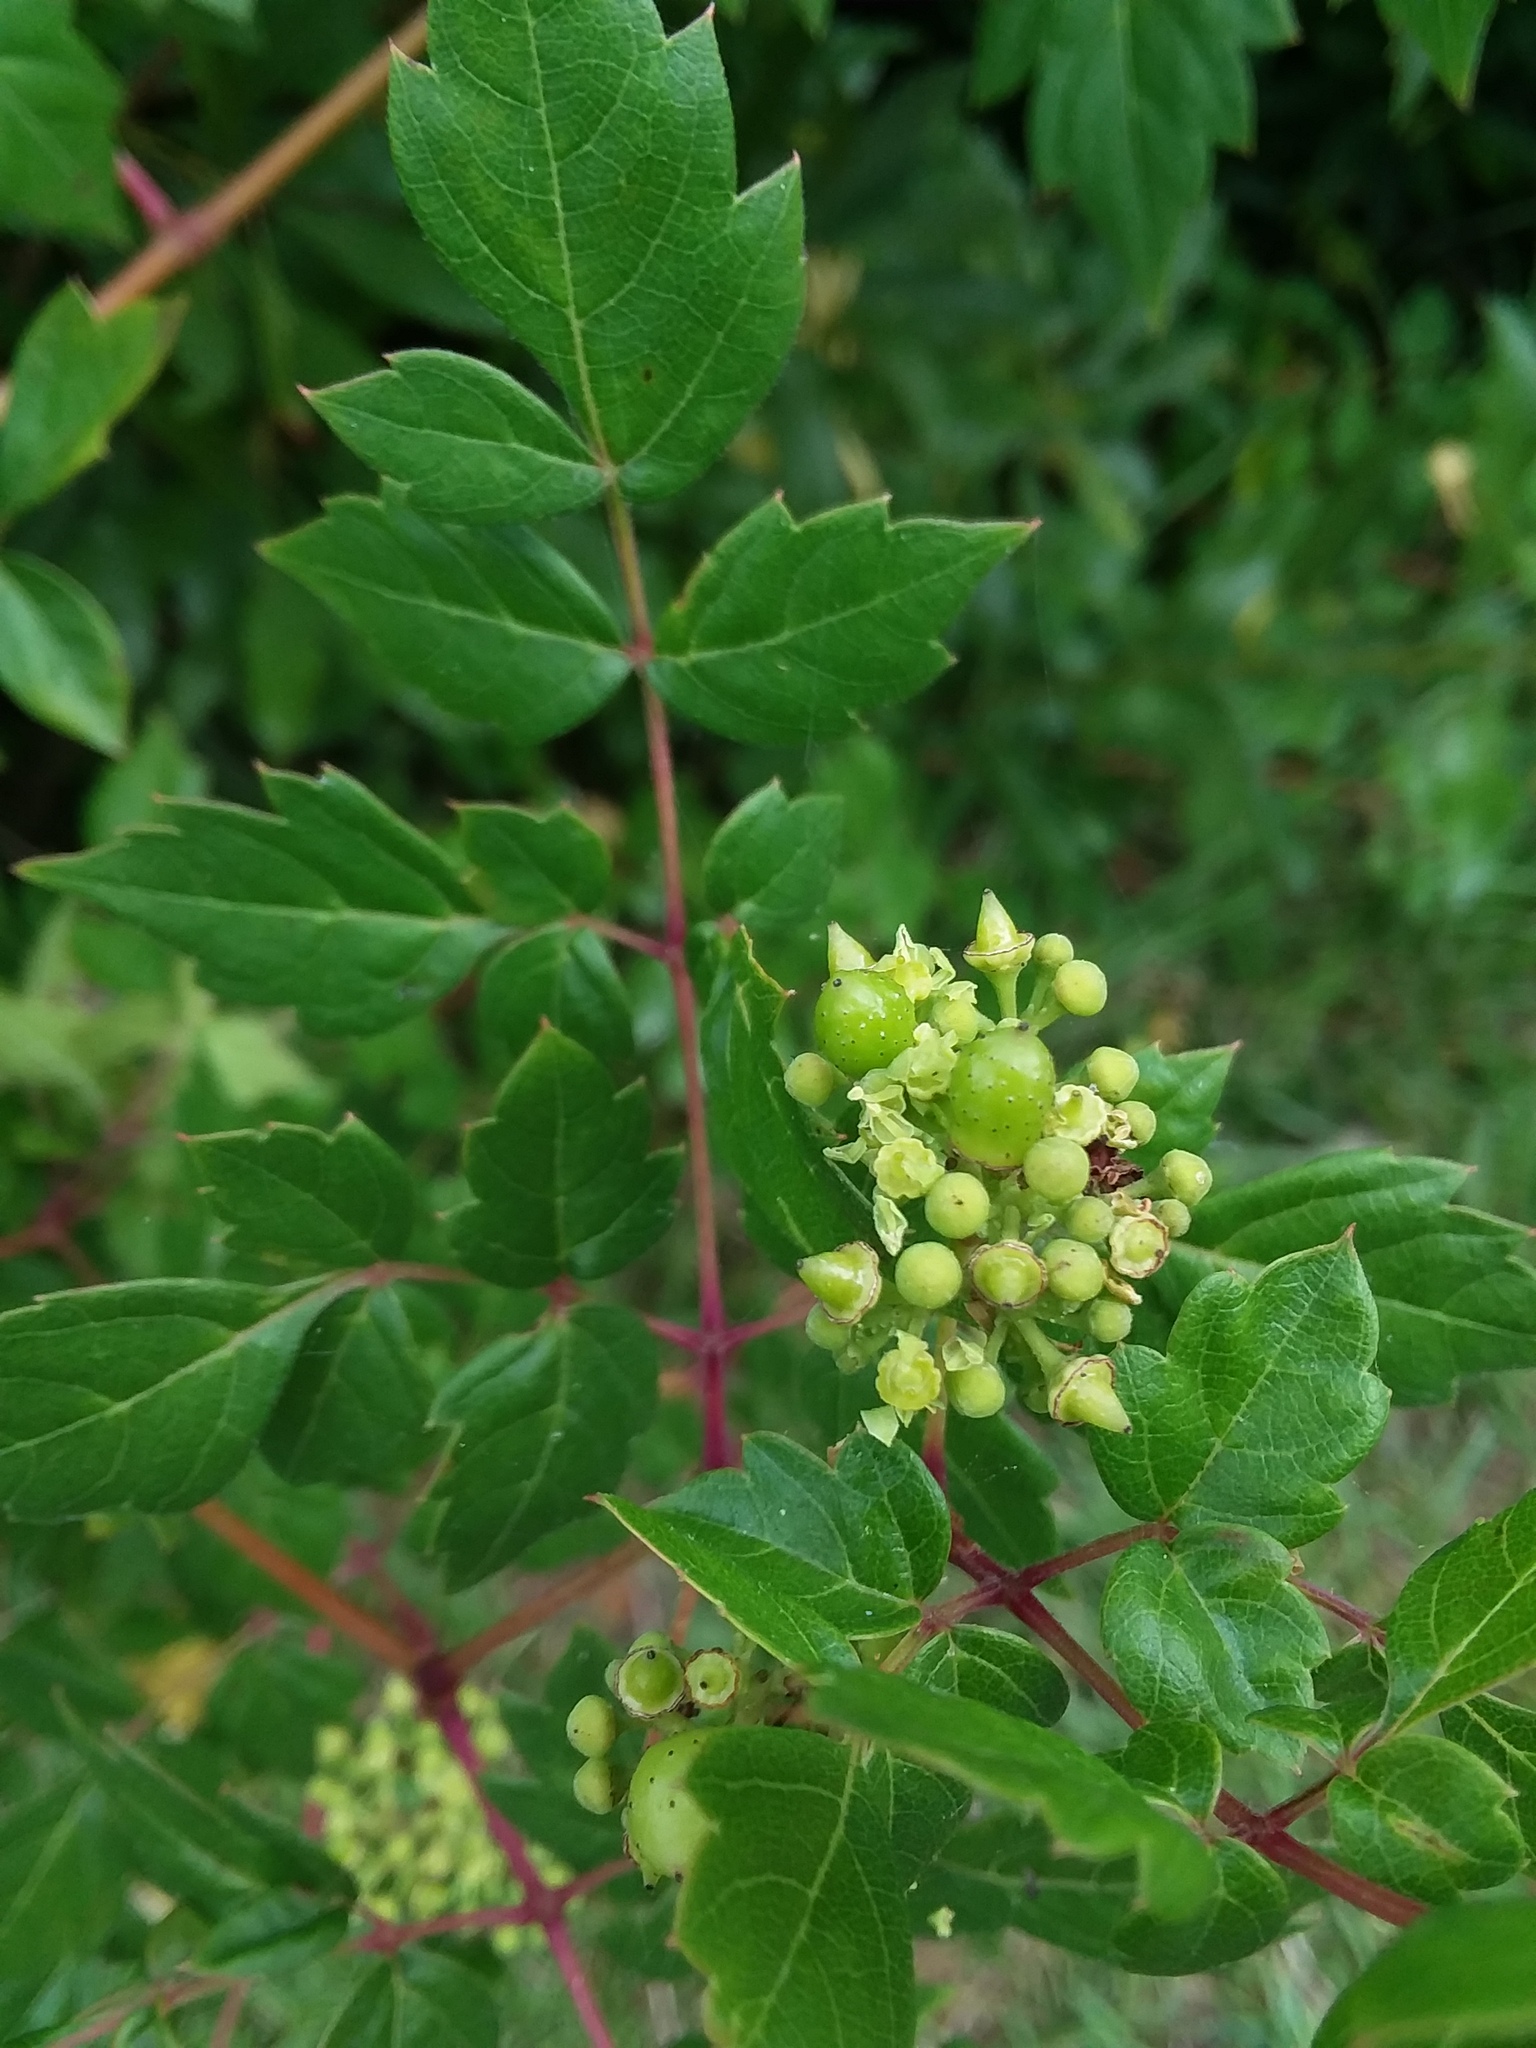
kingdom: Plantae
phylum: Tracheophyta
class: Magnoliopsida
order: Vitales
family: Vitaceae
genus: Nekemias
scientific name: Nekemias arborea
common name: Peppervine
